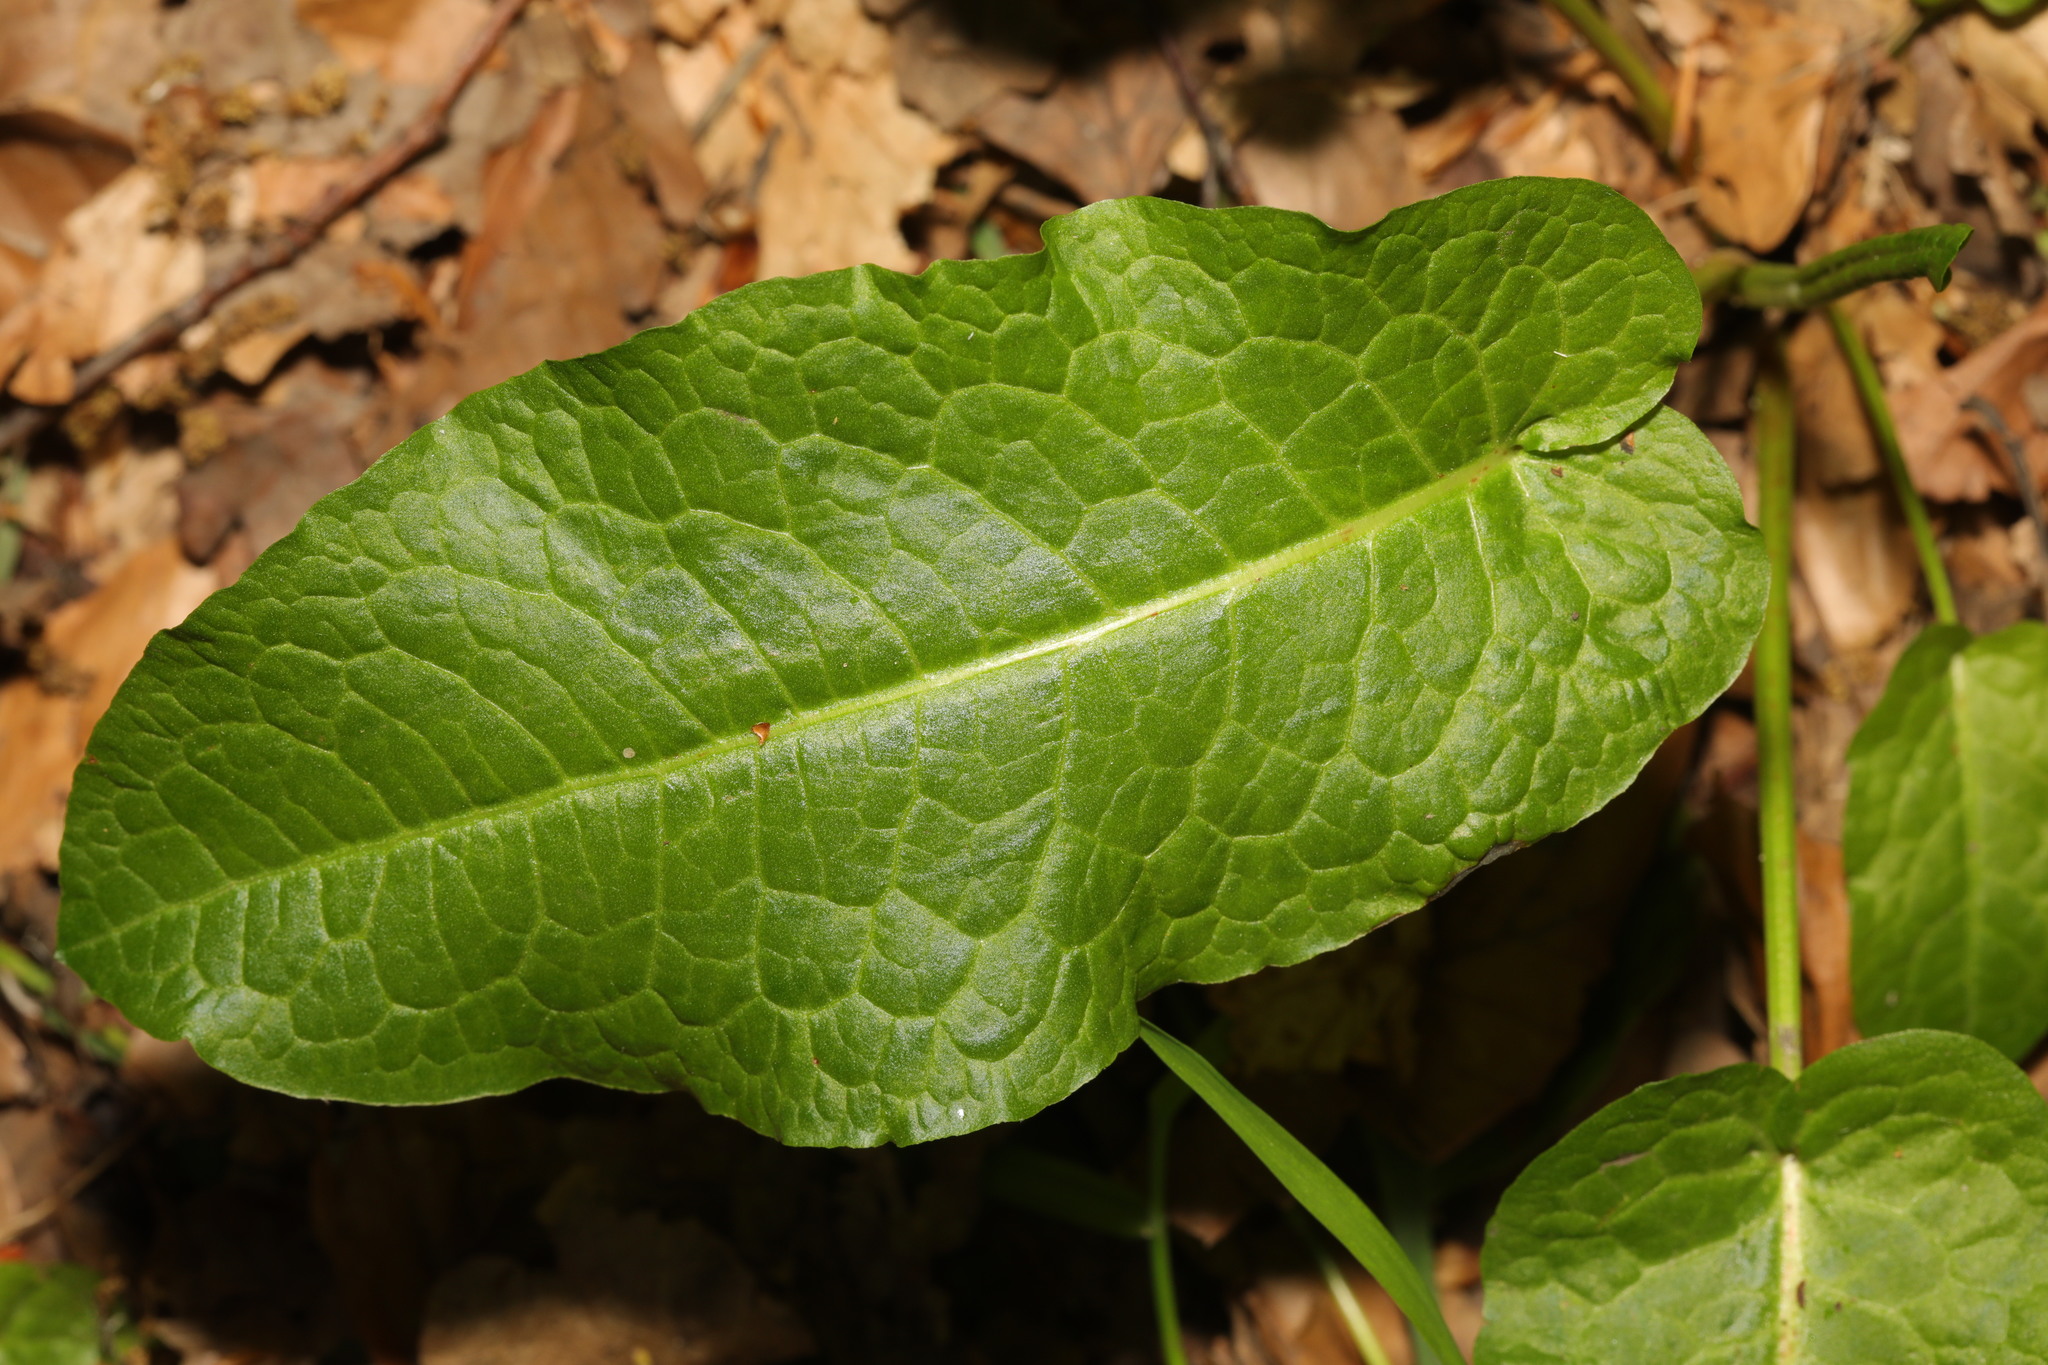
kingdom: Plantae
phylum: Tracheophyta
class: Magnoliopsida
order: Caryophyllales
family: Polygonaceae
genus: Rumex
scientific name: Rumex obtusifolius
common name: Bitter dock
